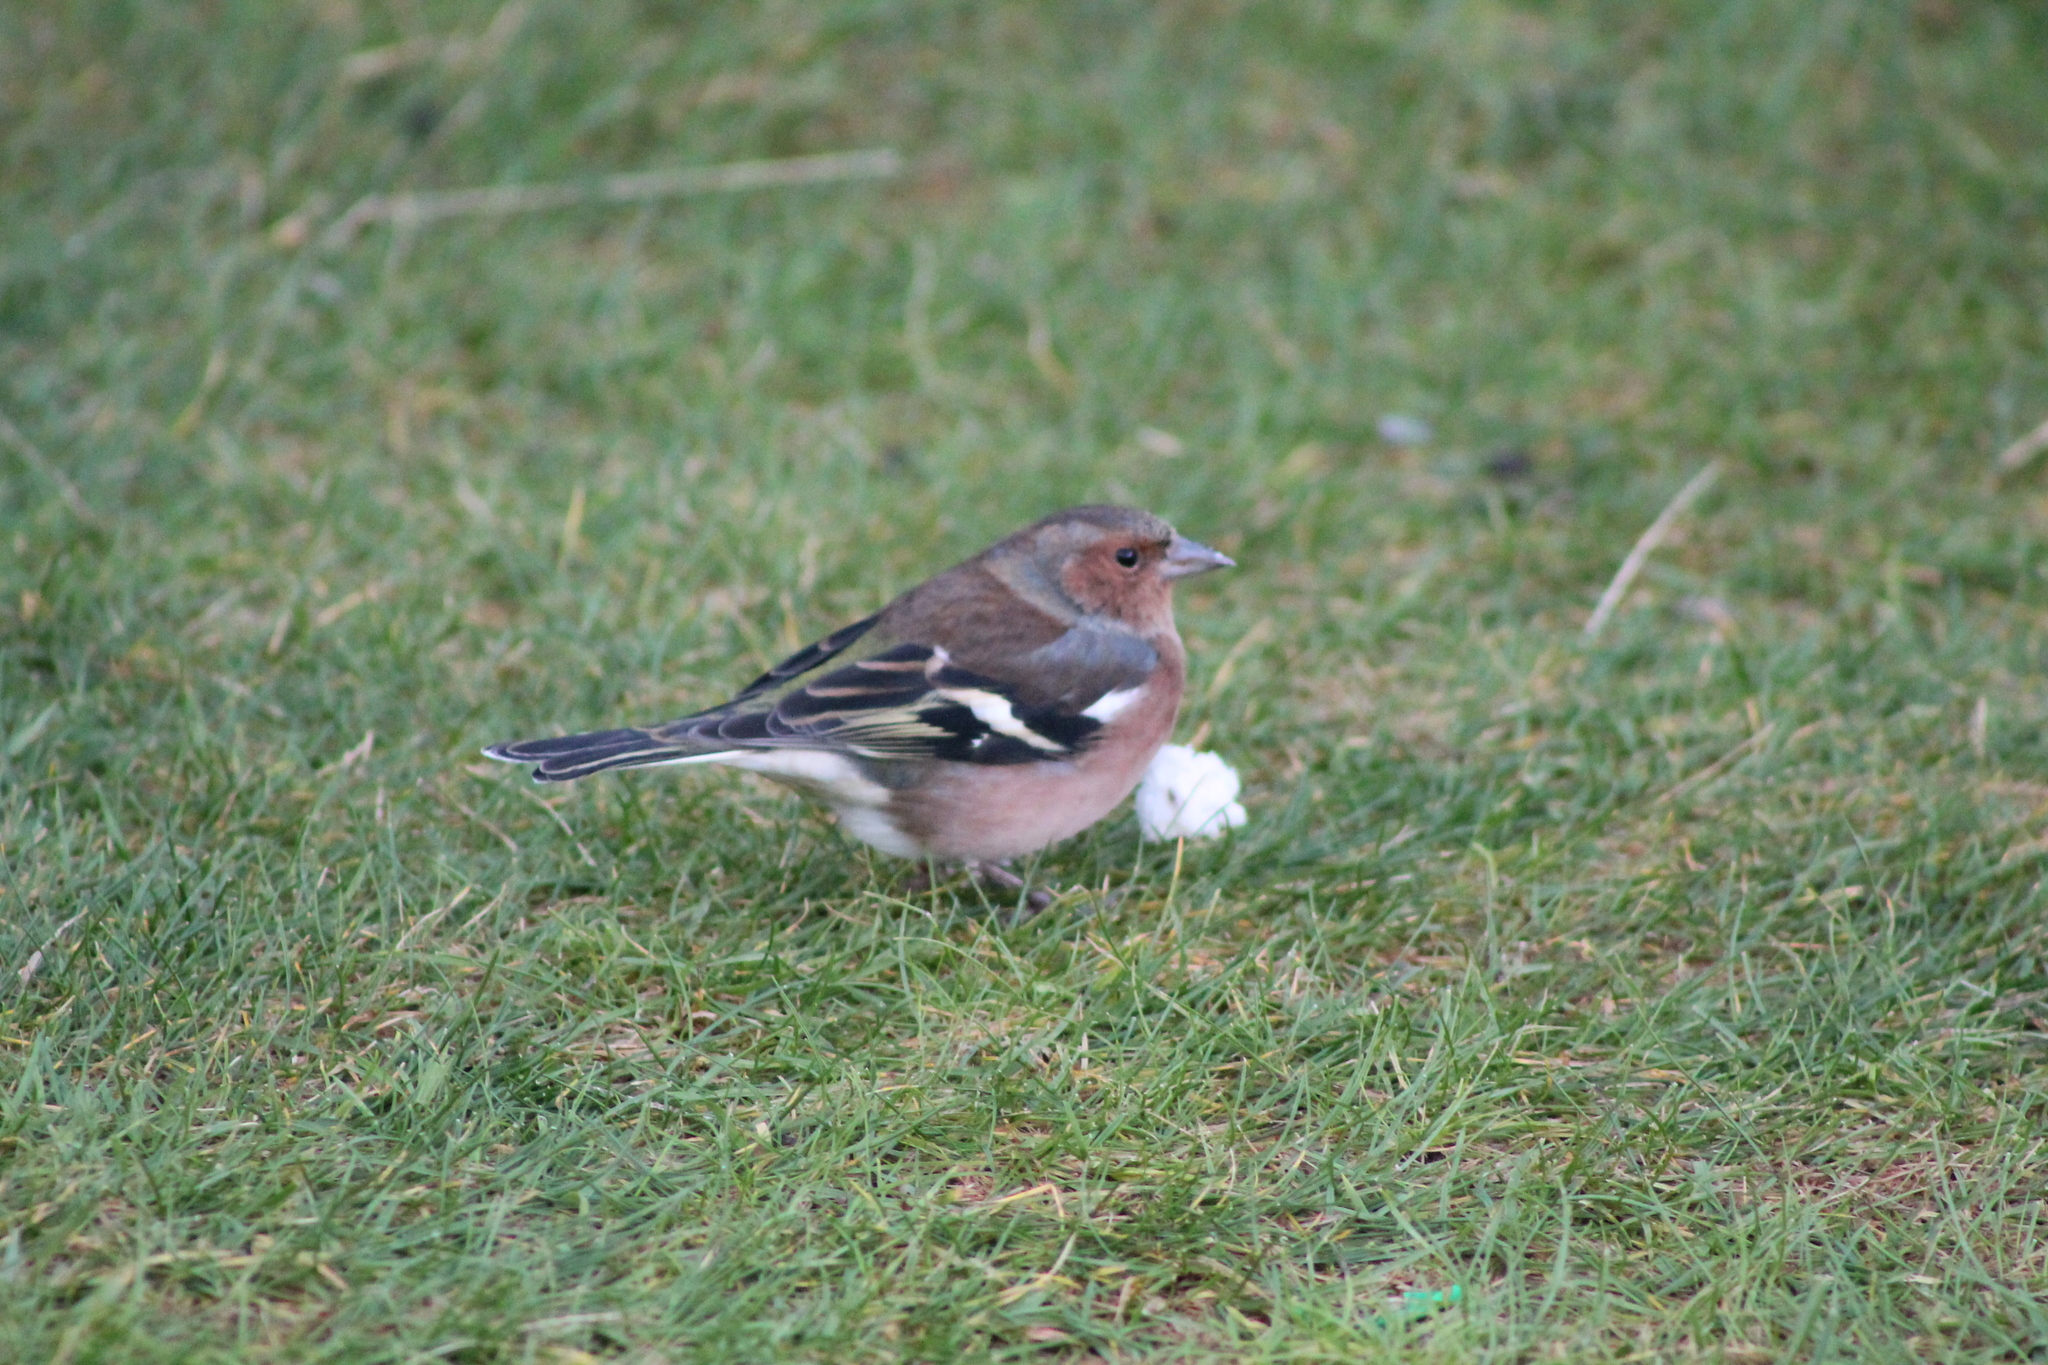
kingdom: Animalia
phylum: Chordata
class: Aves
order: Passeriformes
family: Fringillidae
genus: Fringilla
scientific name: Fringilla coelebs
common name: Common chaffinch
